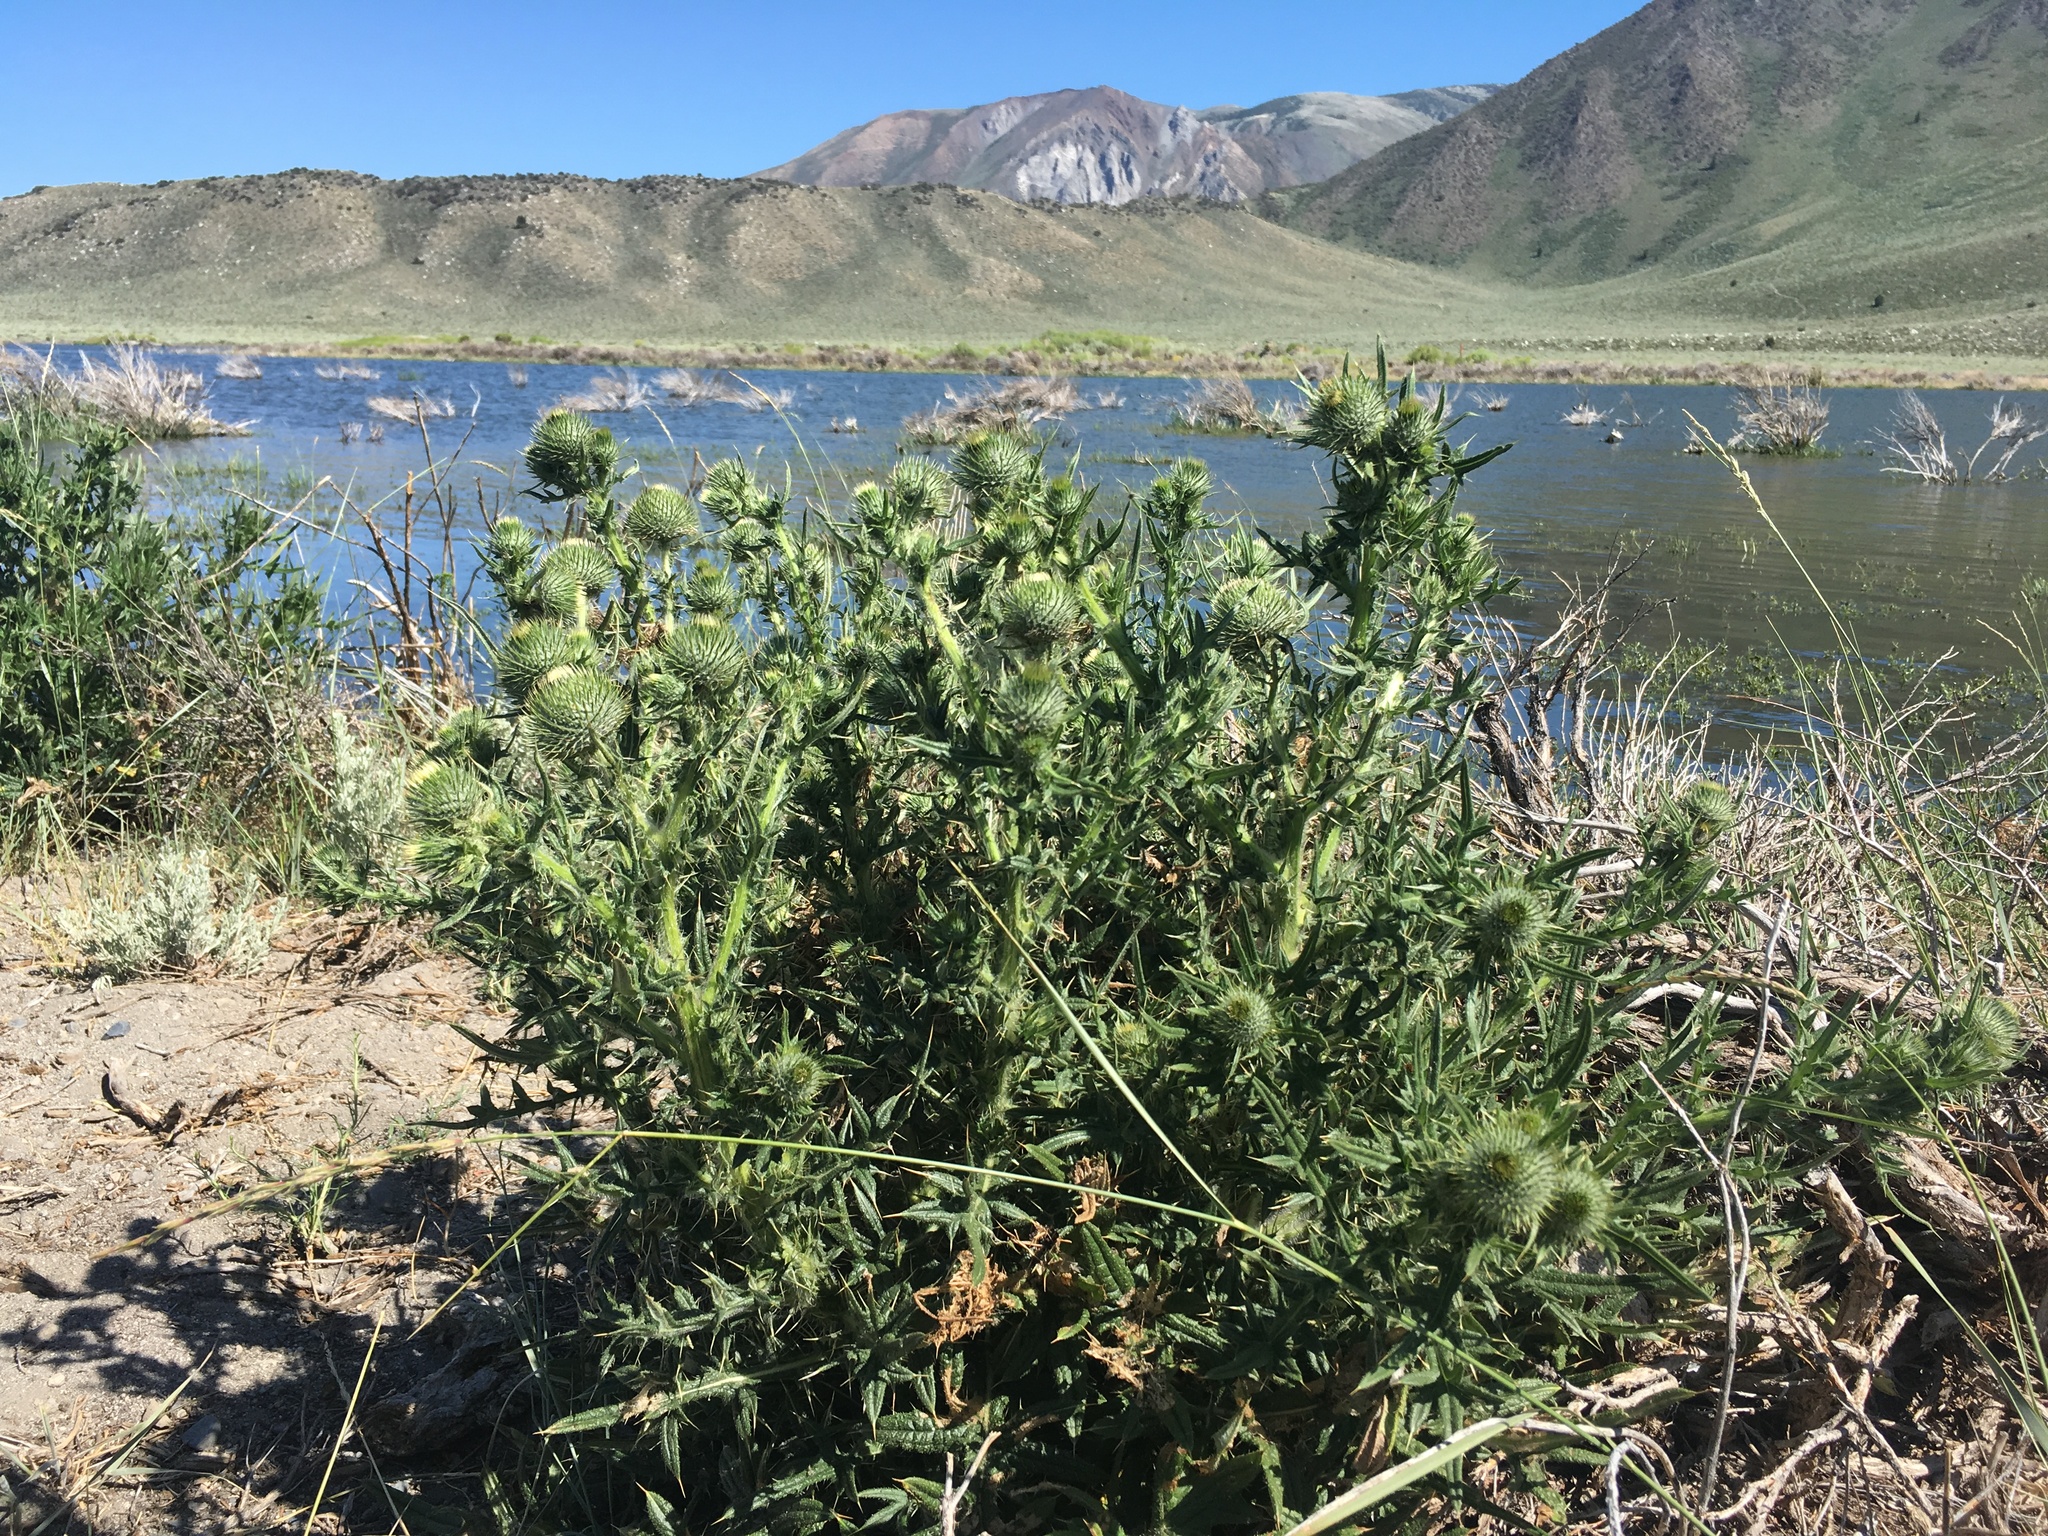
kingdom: Plantae
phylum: Tracheophyta
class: Magnoliopsida
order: Asterales
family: Asteraceae
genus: Cirsium
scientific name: Cirsium vulgare
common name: Bull thistle
